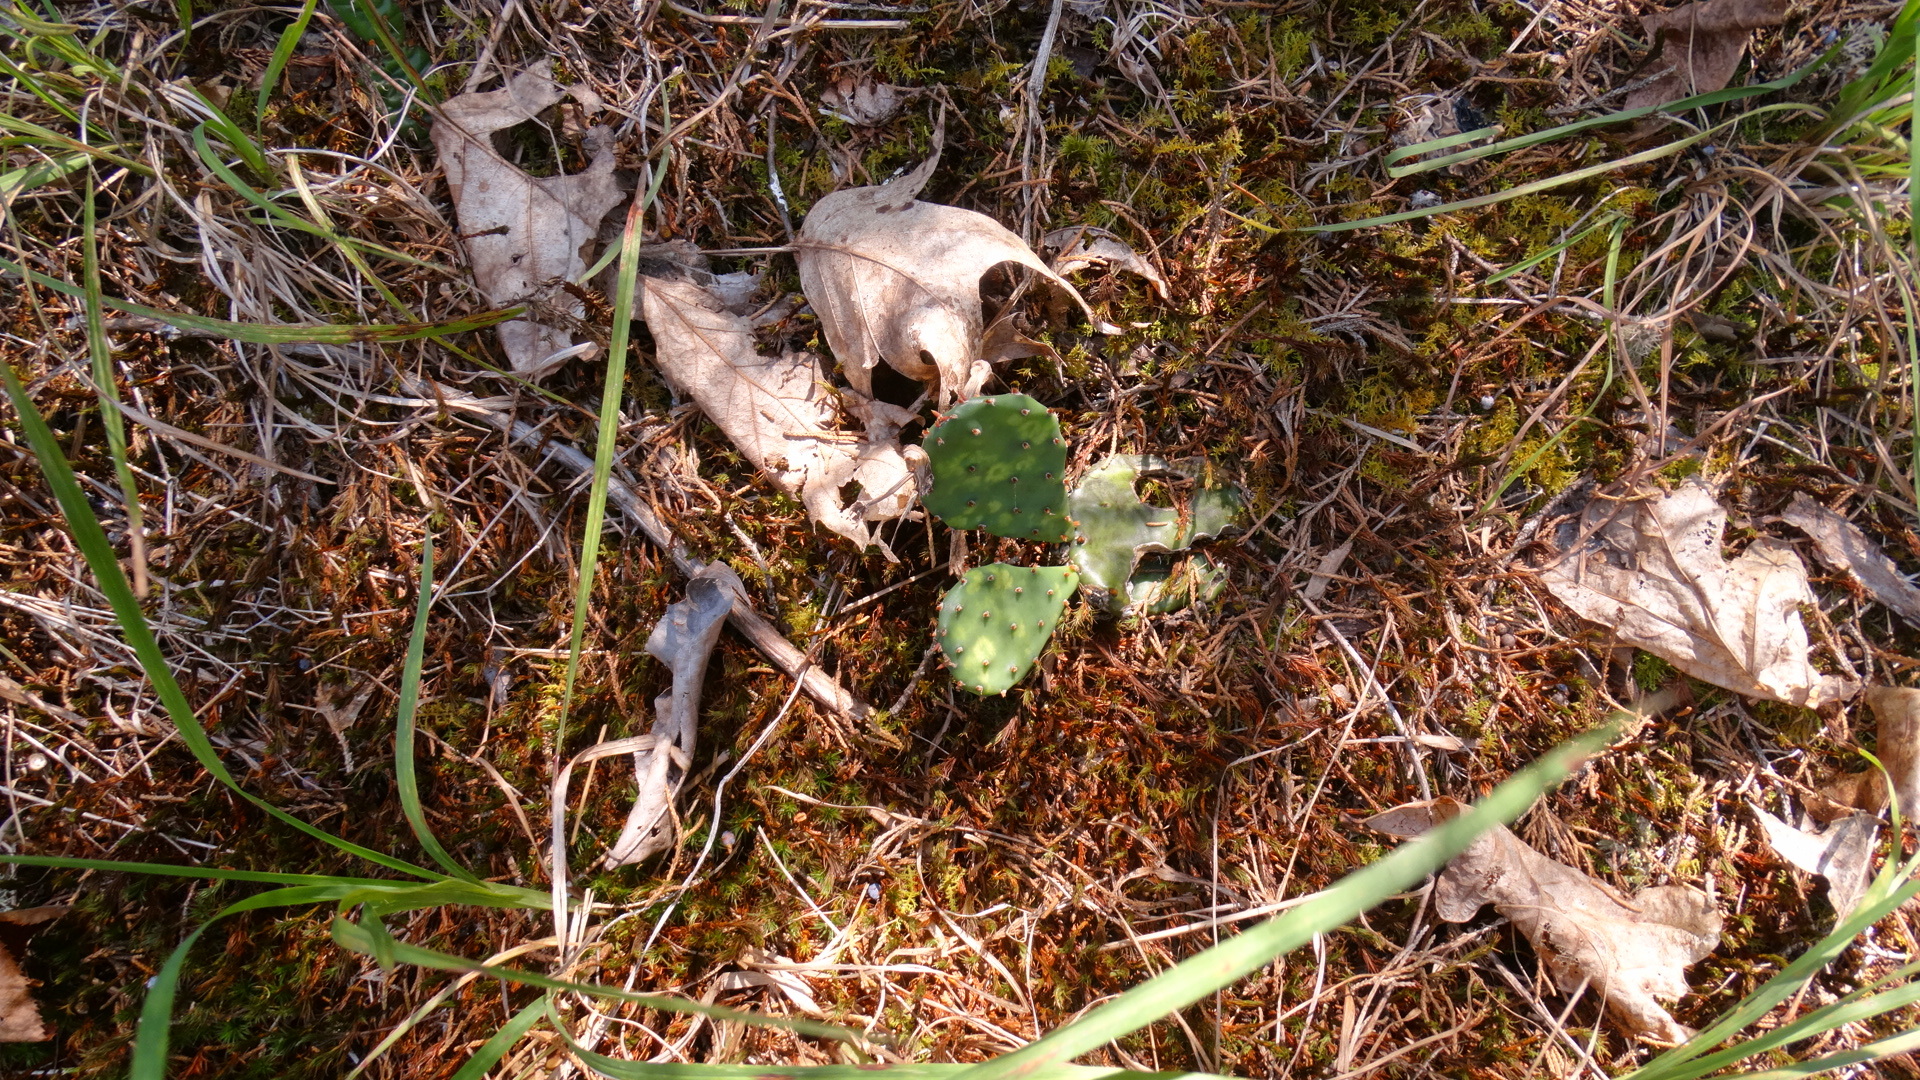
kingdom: Plantae
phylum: Tracheophyta
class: Magnoliopsida
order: Caryophyllales
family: Cactaceae
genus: Opuntia
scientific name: Opuntia humifusa
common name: Eastern prickly-pear
